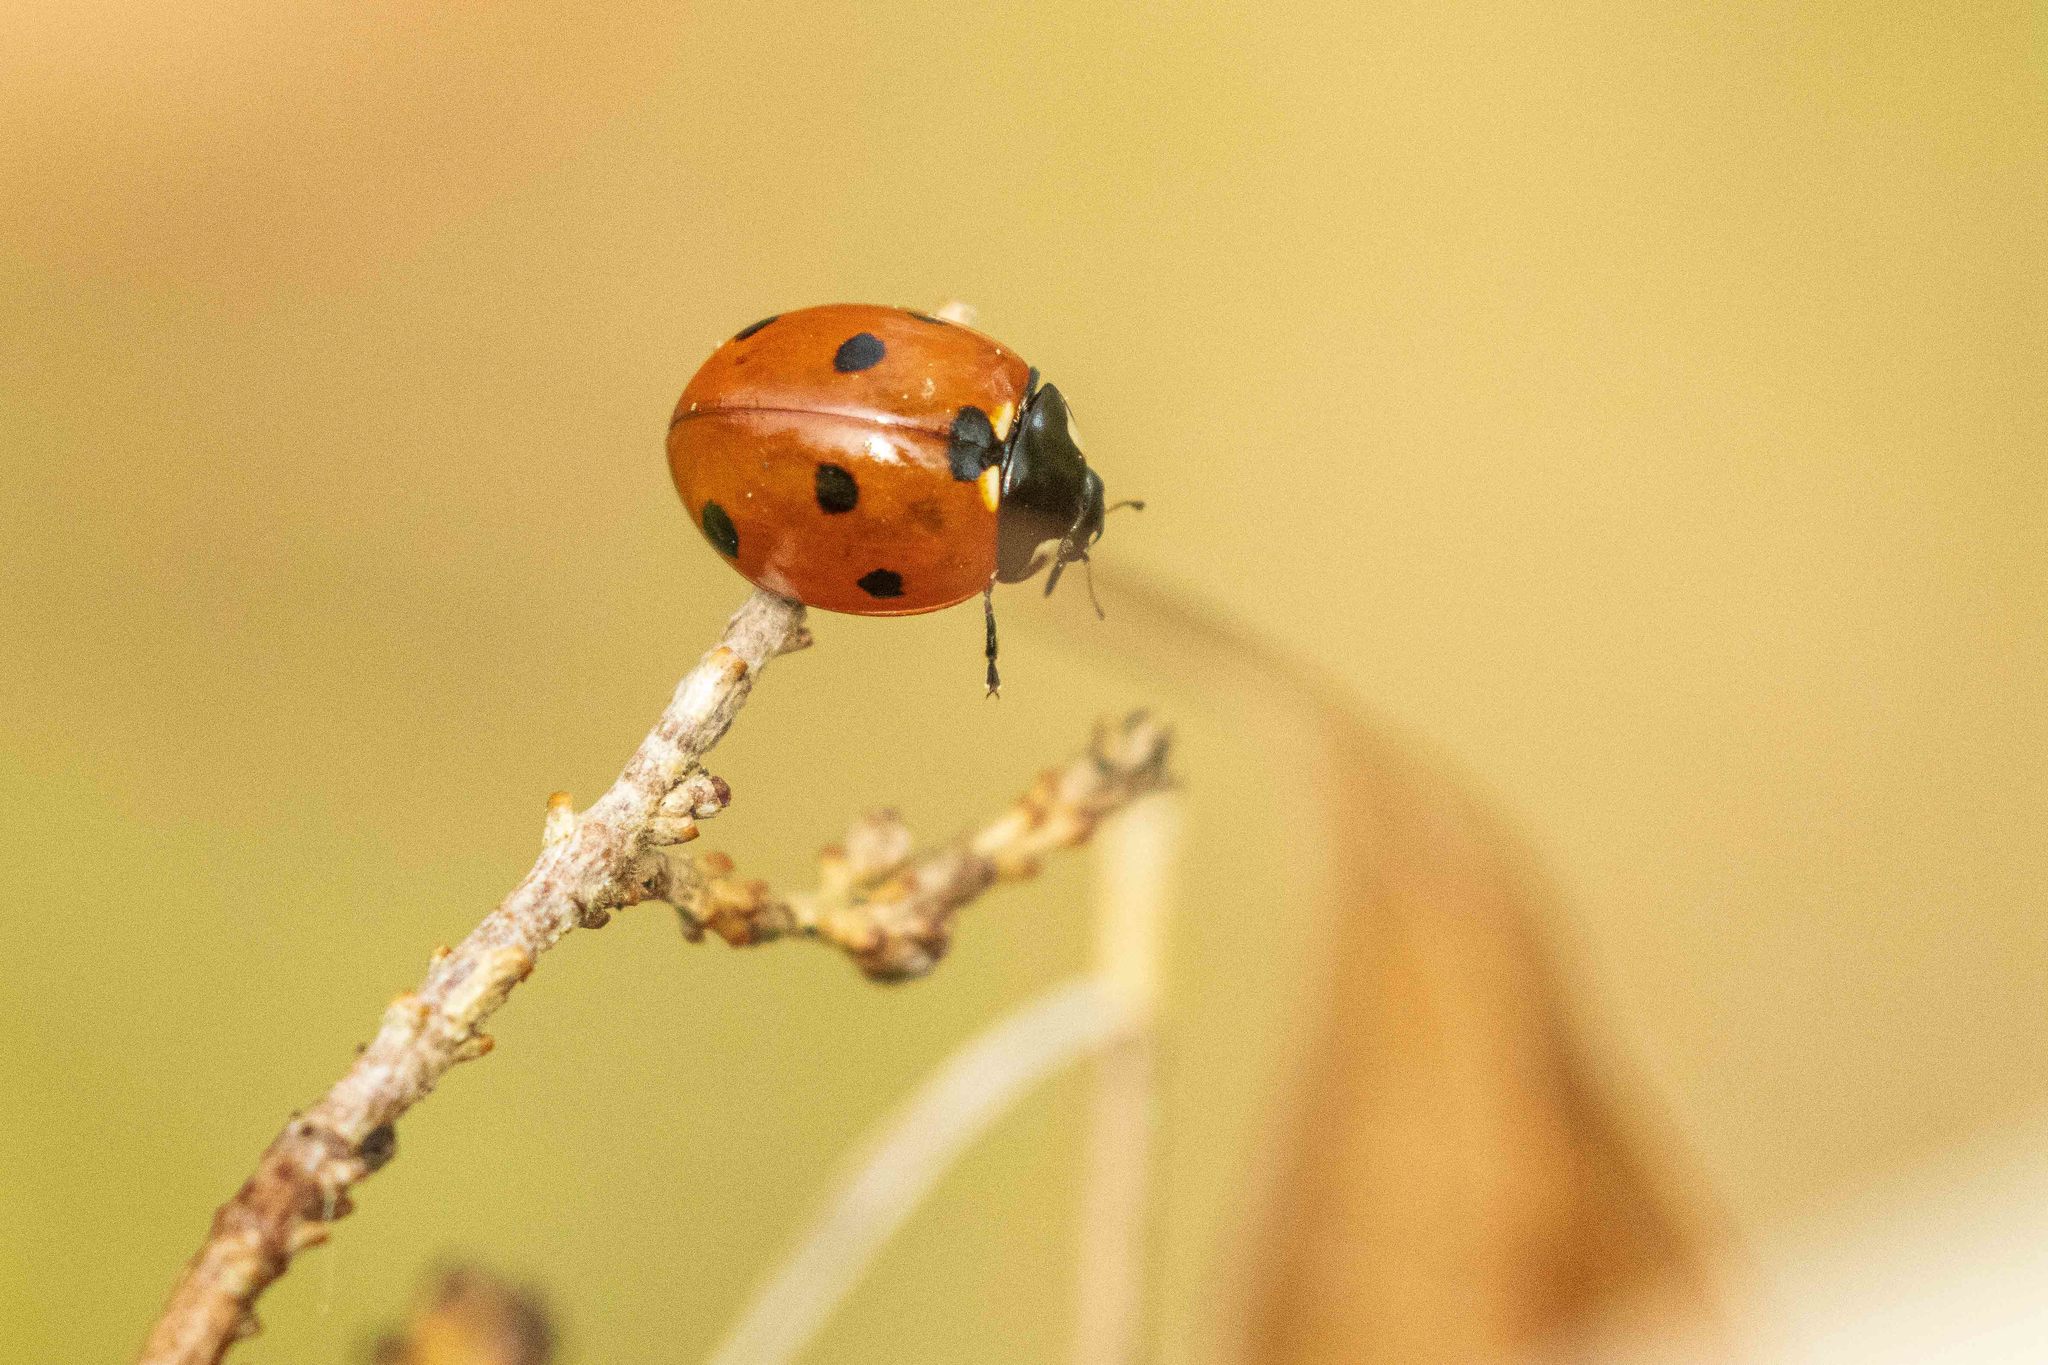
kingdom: Animalia
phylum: Arthropoda
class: Insecta
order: Coleoptera
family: Coccinellidae
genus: Coccinella
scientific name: Coccinella septempunctata
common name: Sevenspotted lady beetle
